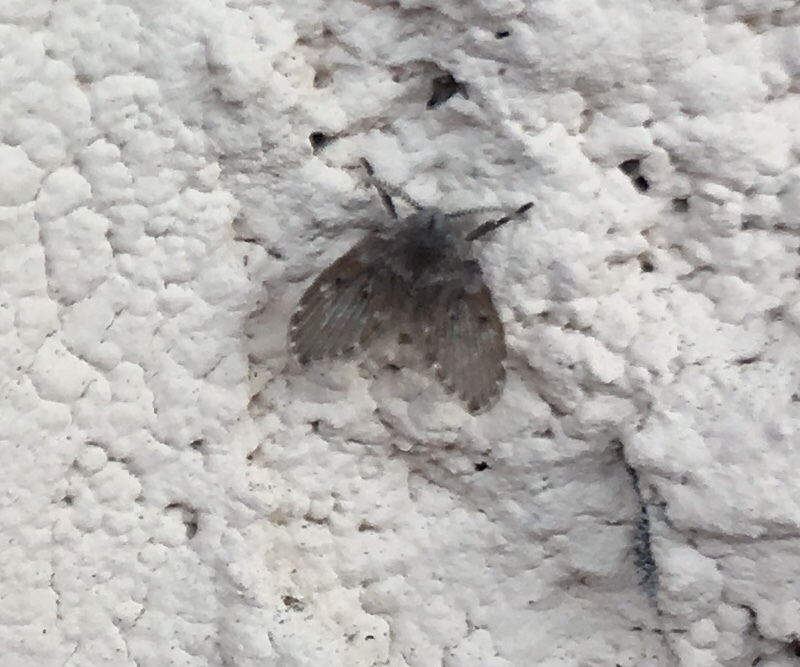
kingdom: Animalia
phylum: Arthropoda
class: Insecta
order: Diptera
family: Psychodidae
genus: Clogmia
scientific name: Clogmia albipunctatus
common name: White-spotted moth fly
